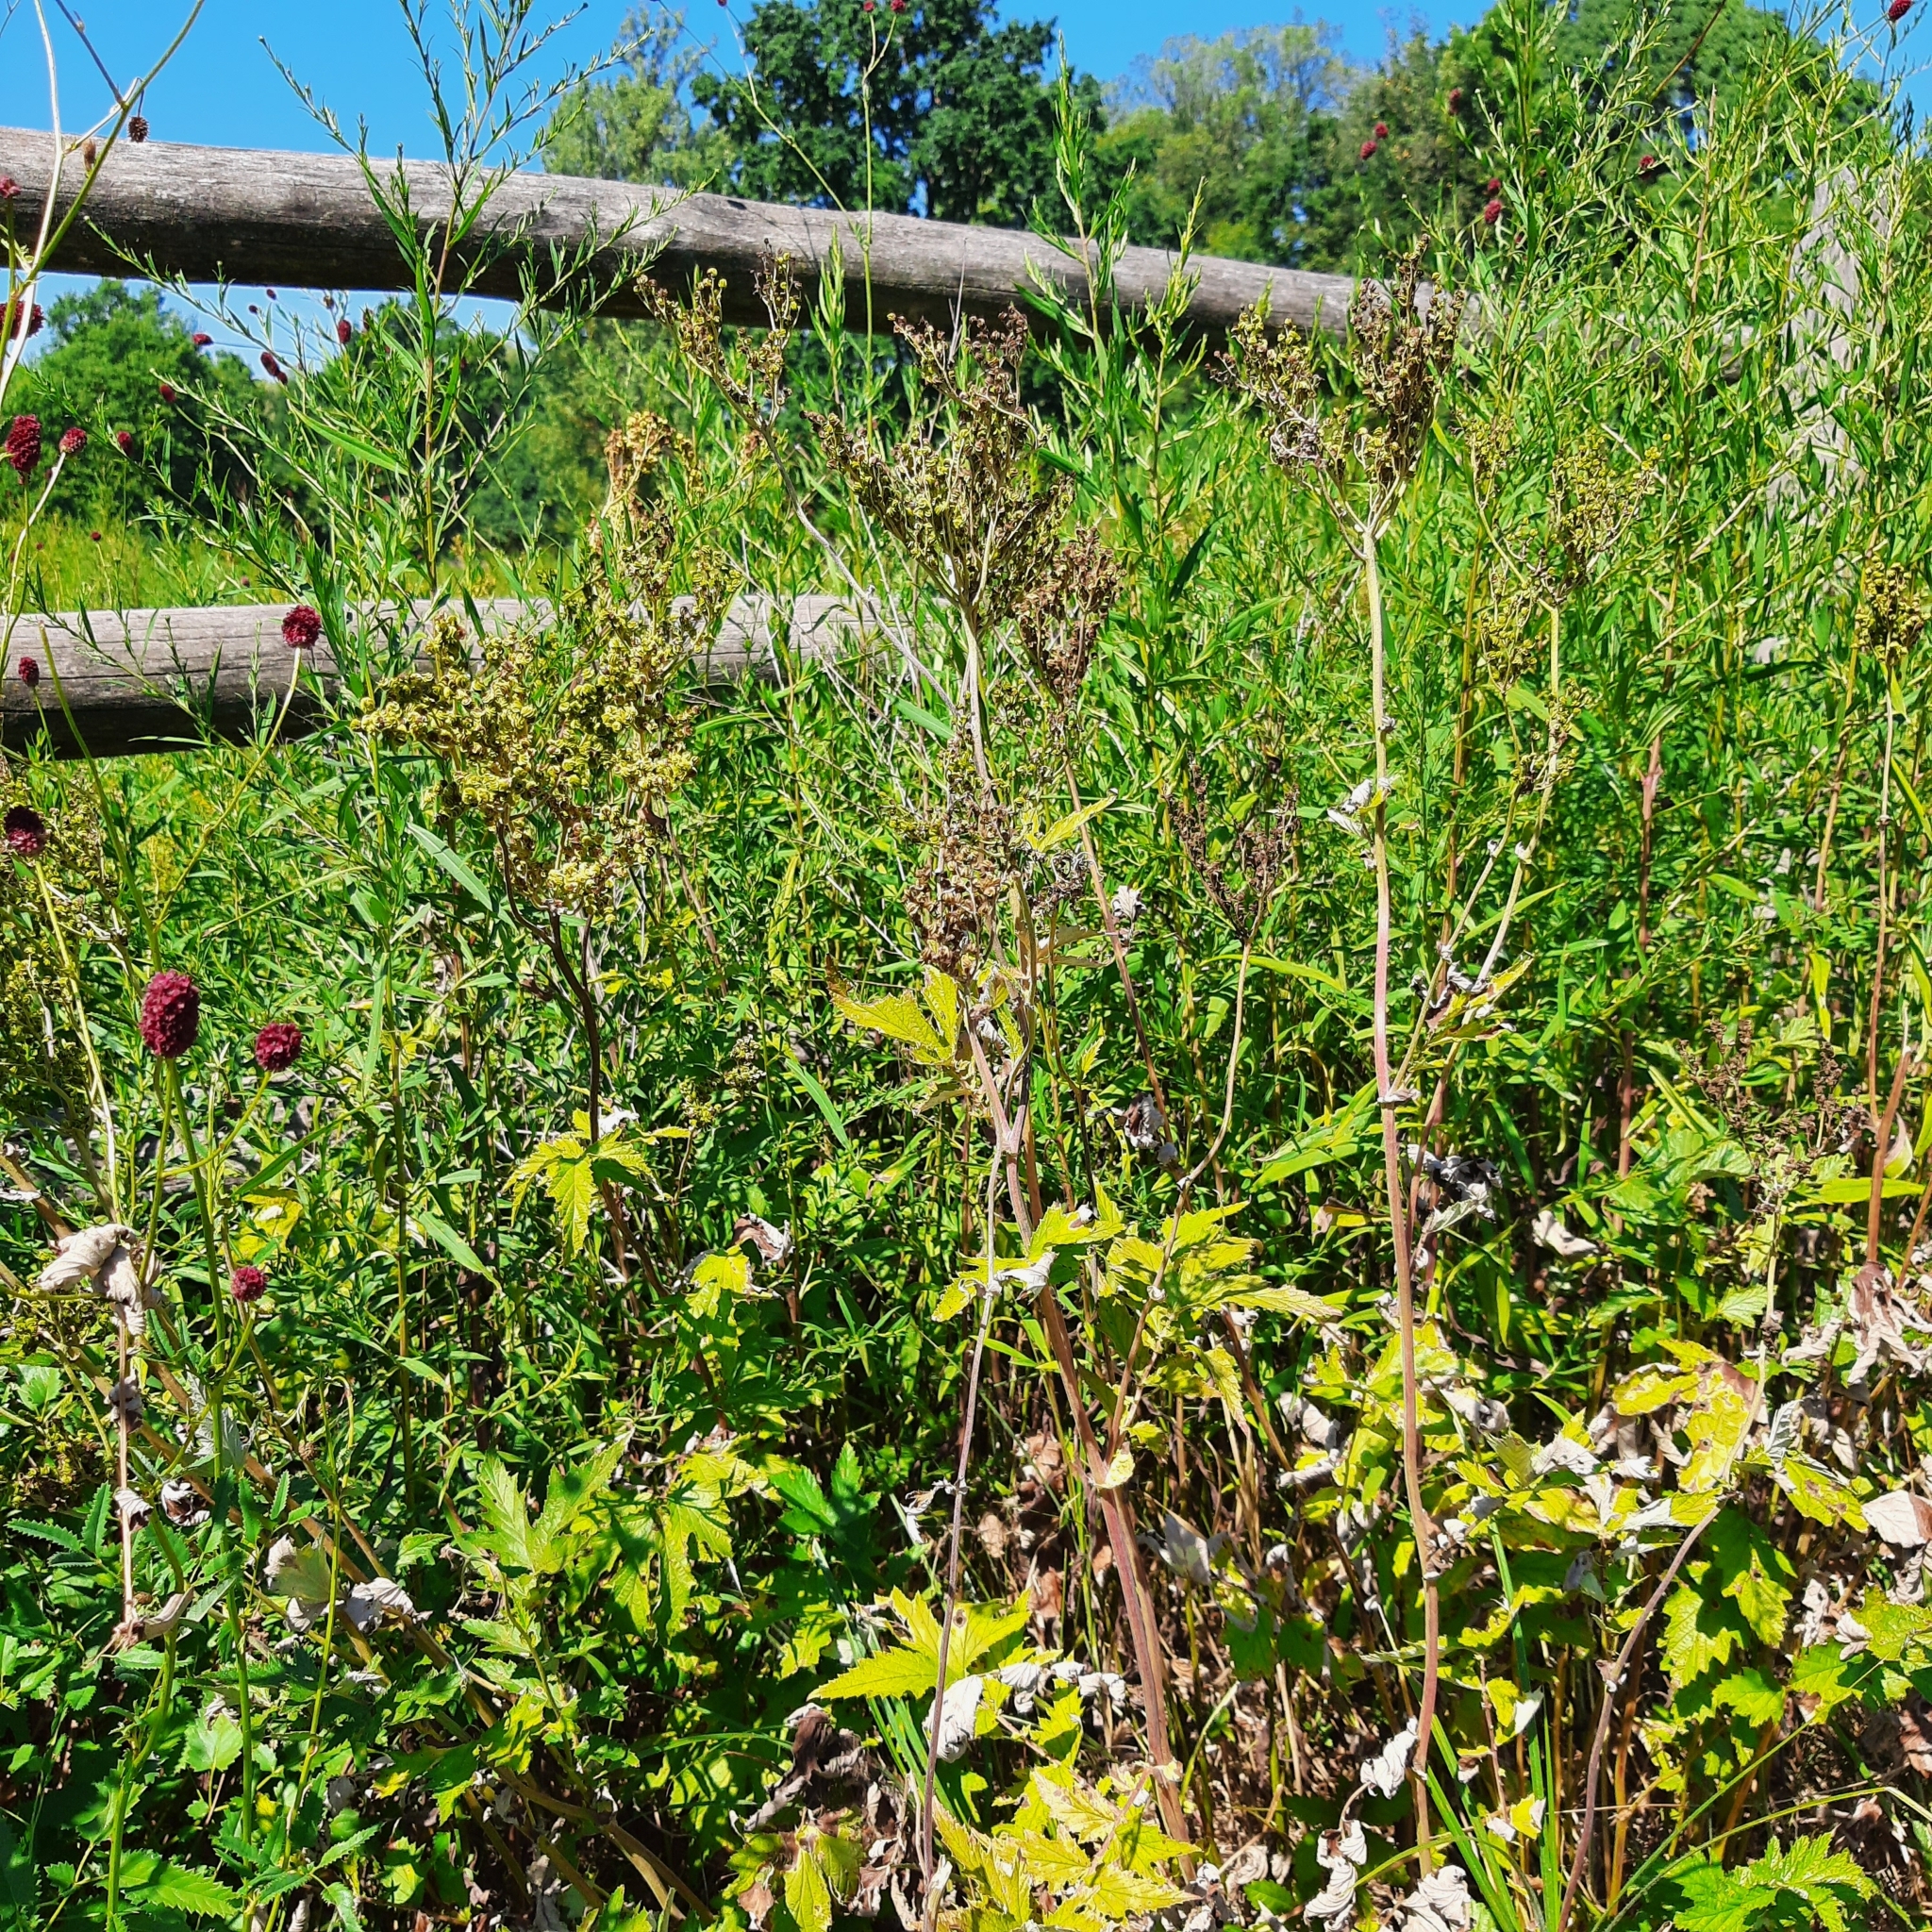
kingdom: Plantae
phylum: Tracheophyta
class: Magnoliopsida
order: Rosales
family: Rosaceae
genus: Filipendula
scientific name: Filipendula ulmaria
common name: Meadowsweet
